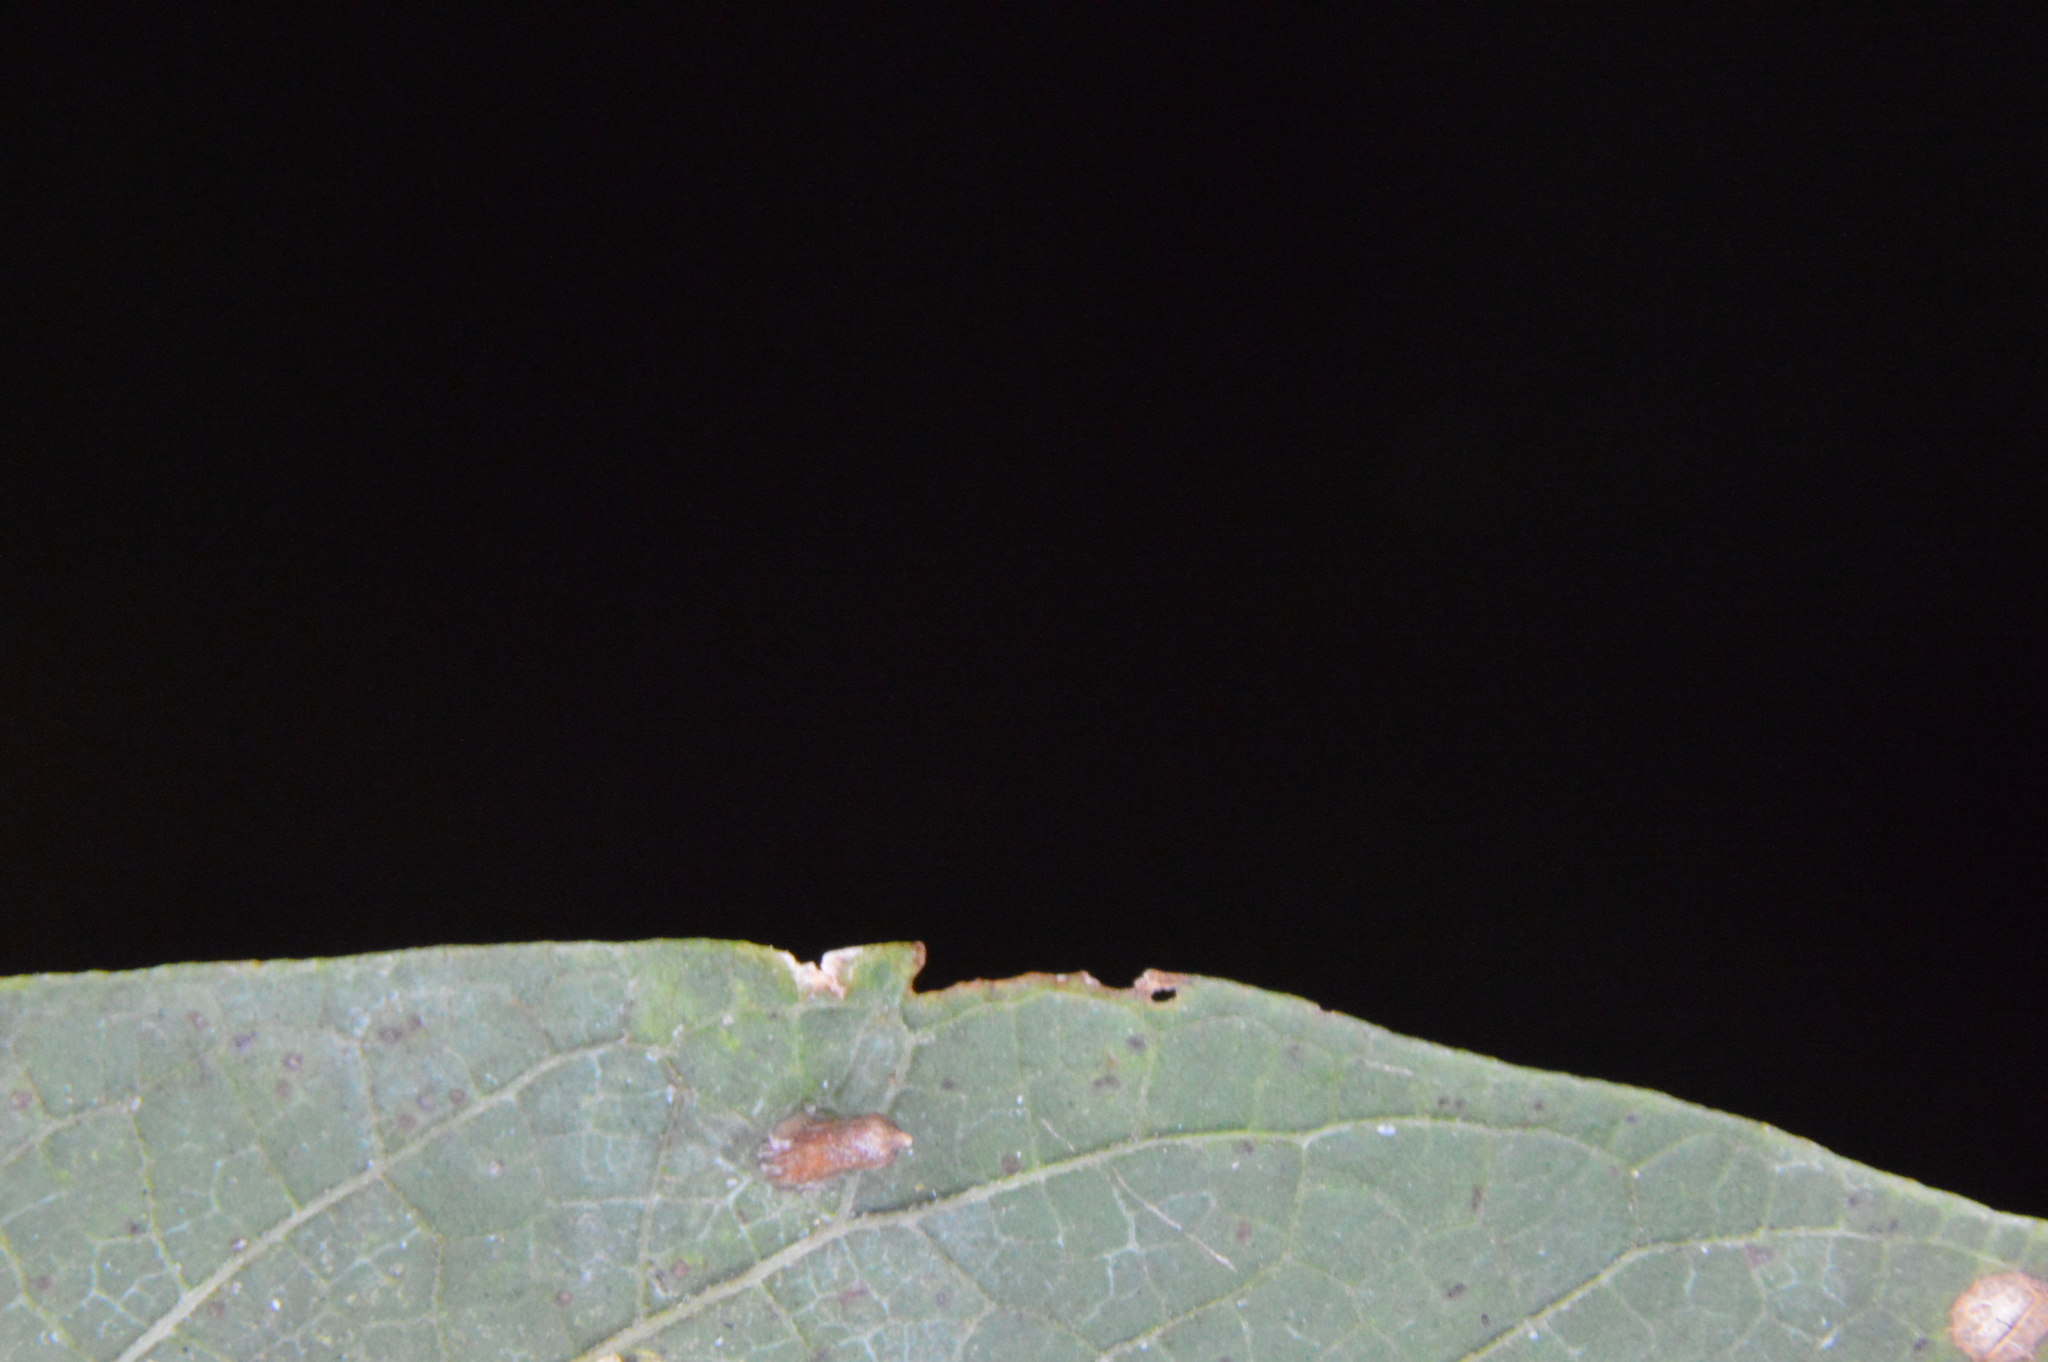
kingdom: Animalia
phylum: Arthropoda
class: Insecta
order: Diptera
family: Cecidomyiidae
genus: Celticecis
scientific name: Celticecis aciculata
